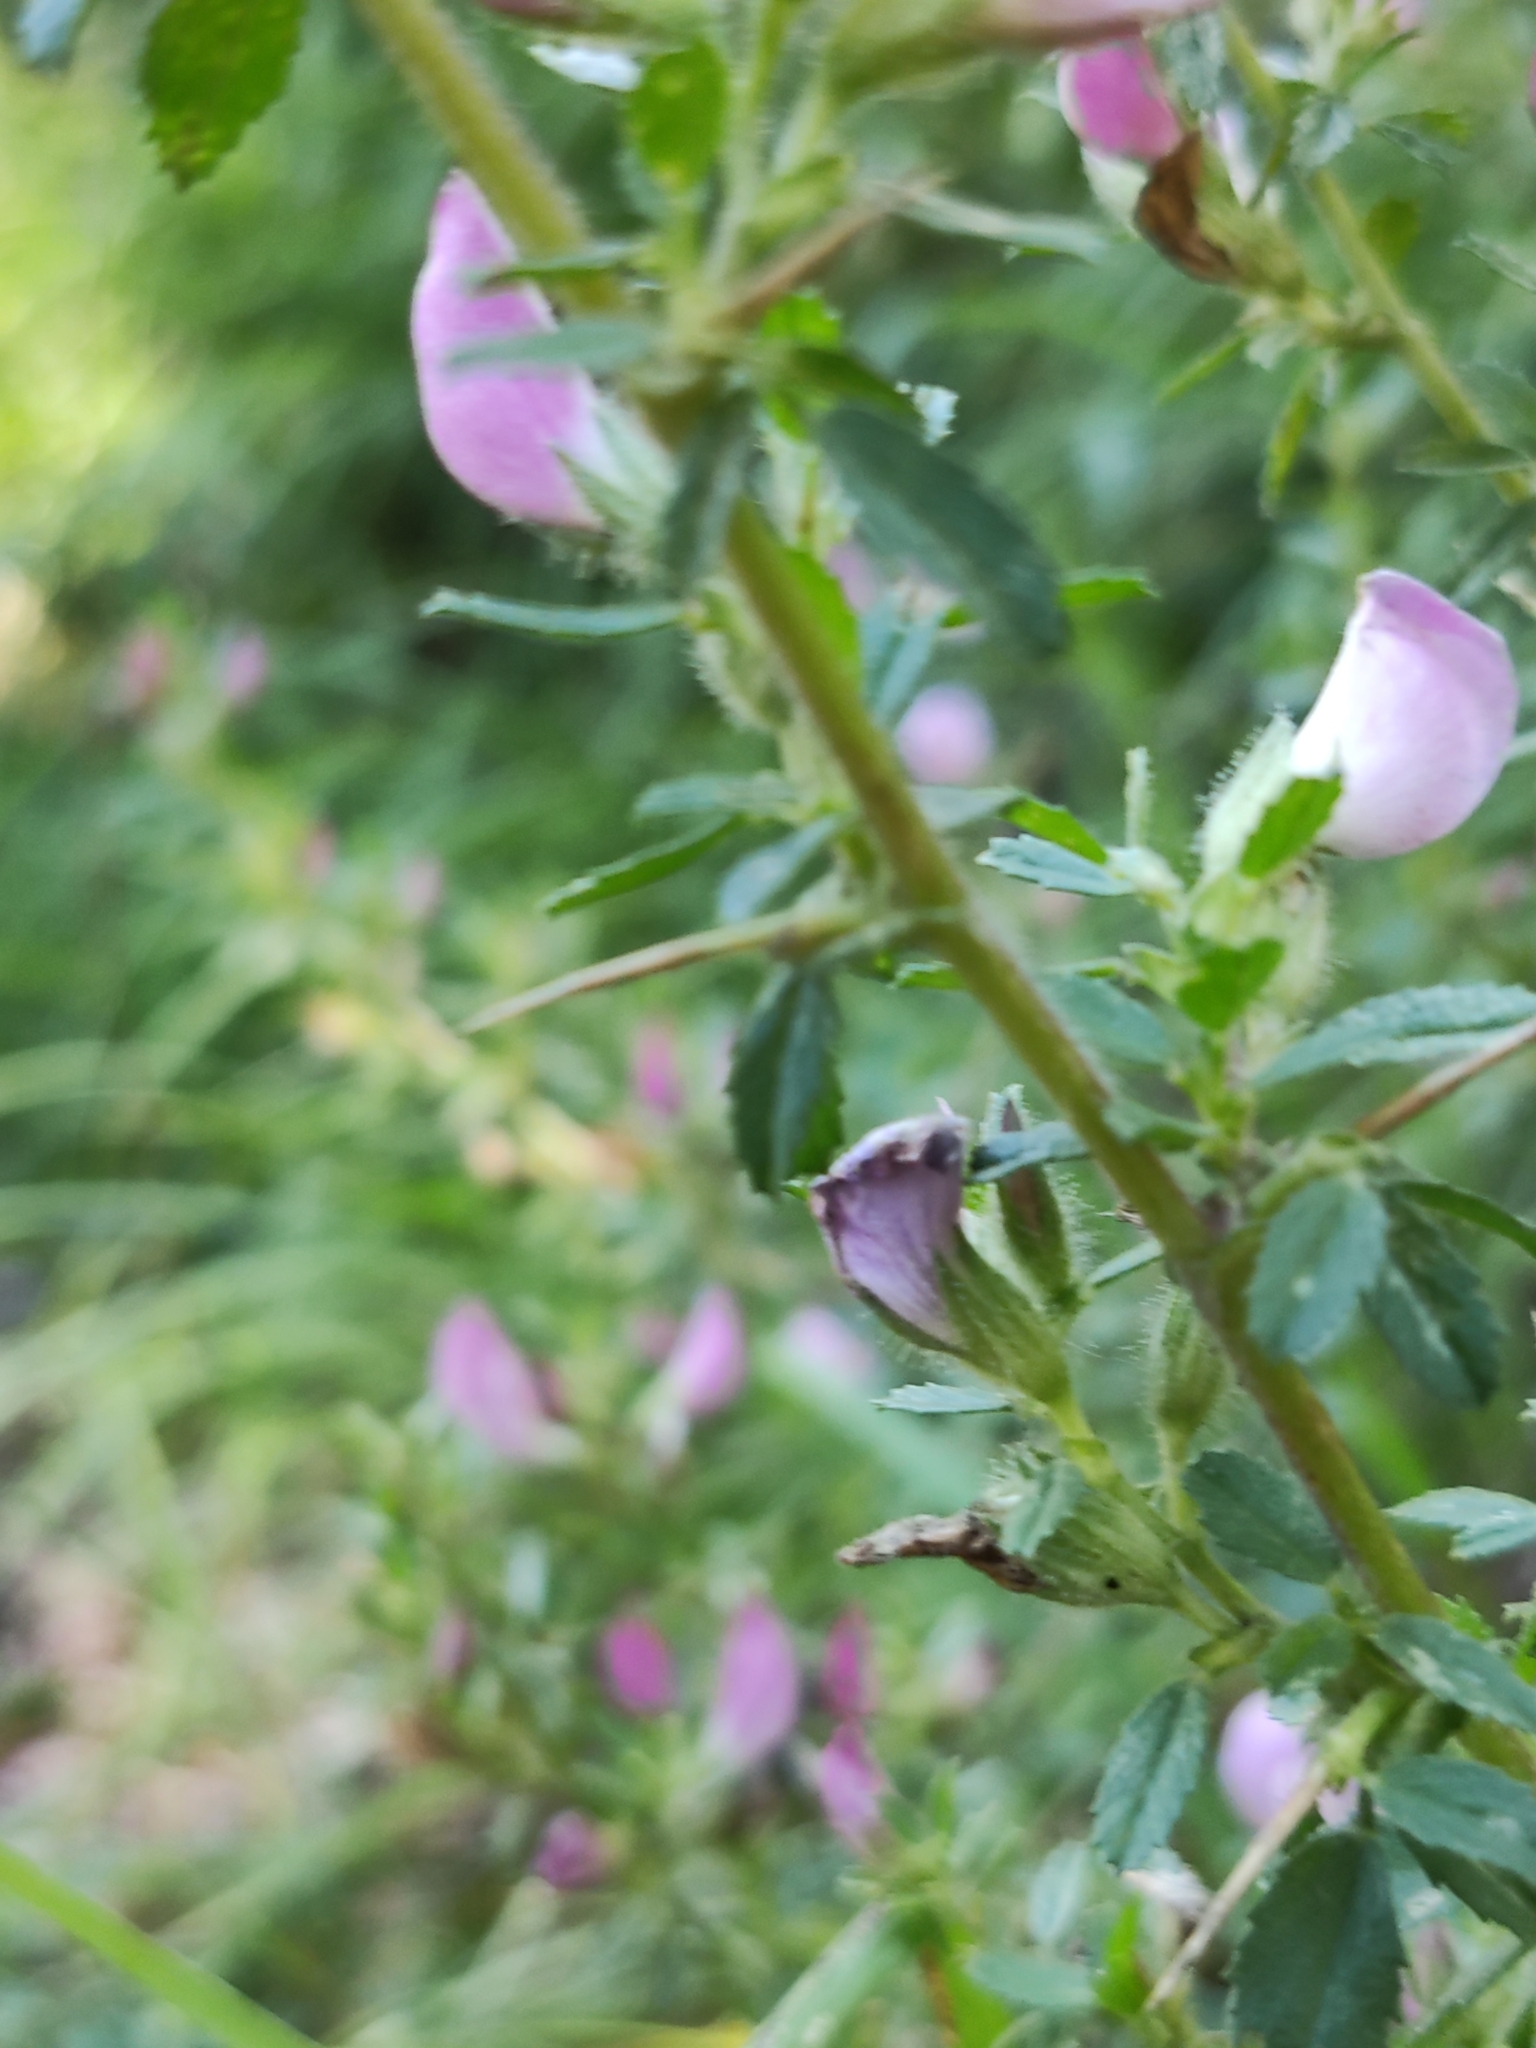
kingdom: Plantae
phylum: Tracheophyta
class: Magnoliopsida
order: Fabales
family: Fabaceae
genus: Ononis
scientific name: Ononis spinosa
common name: Spiny restharrow
